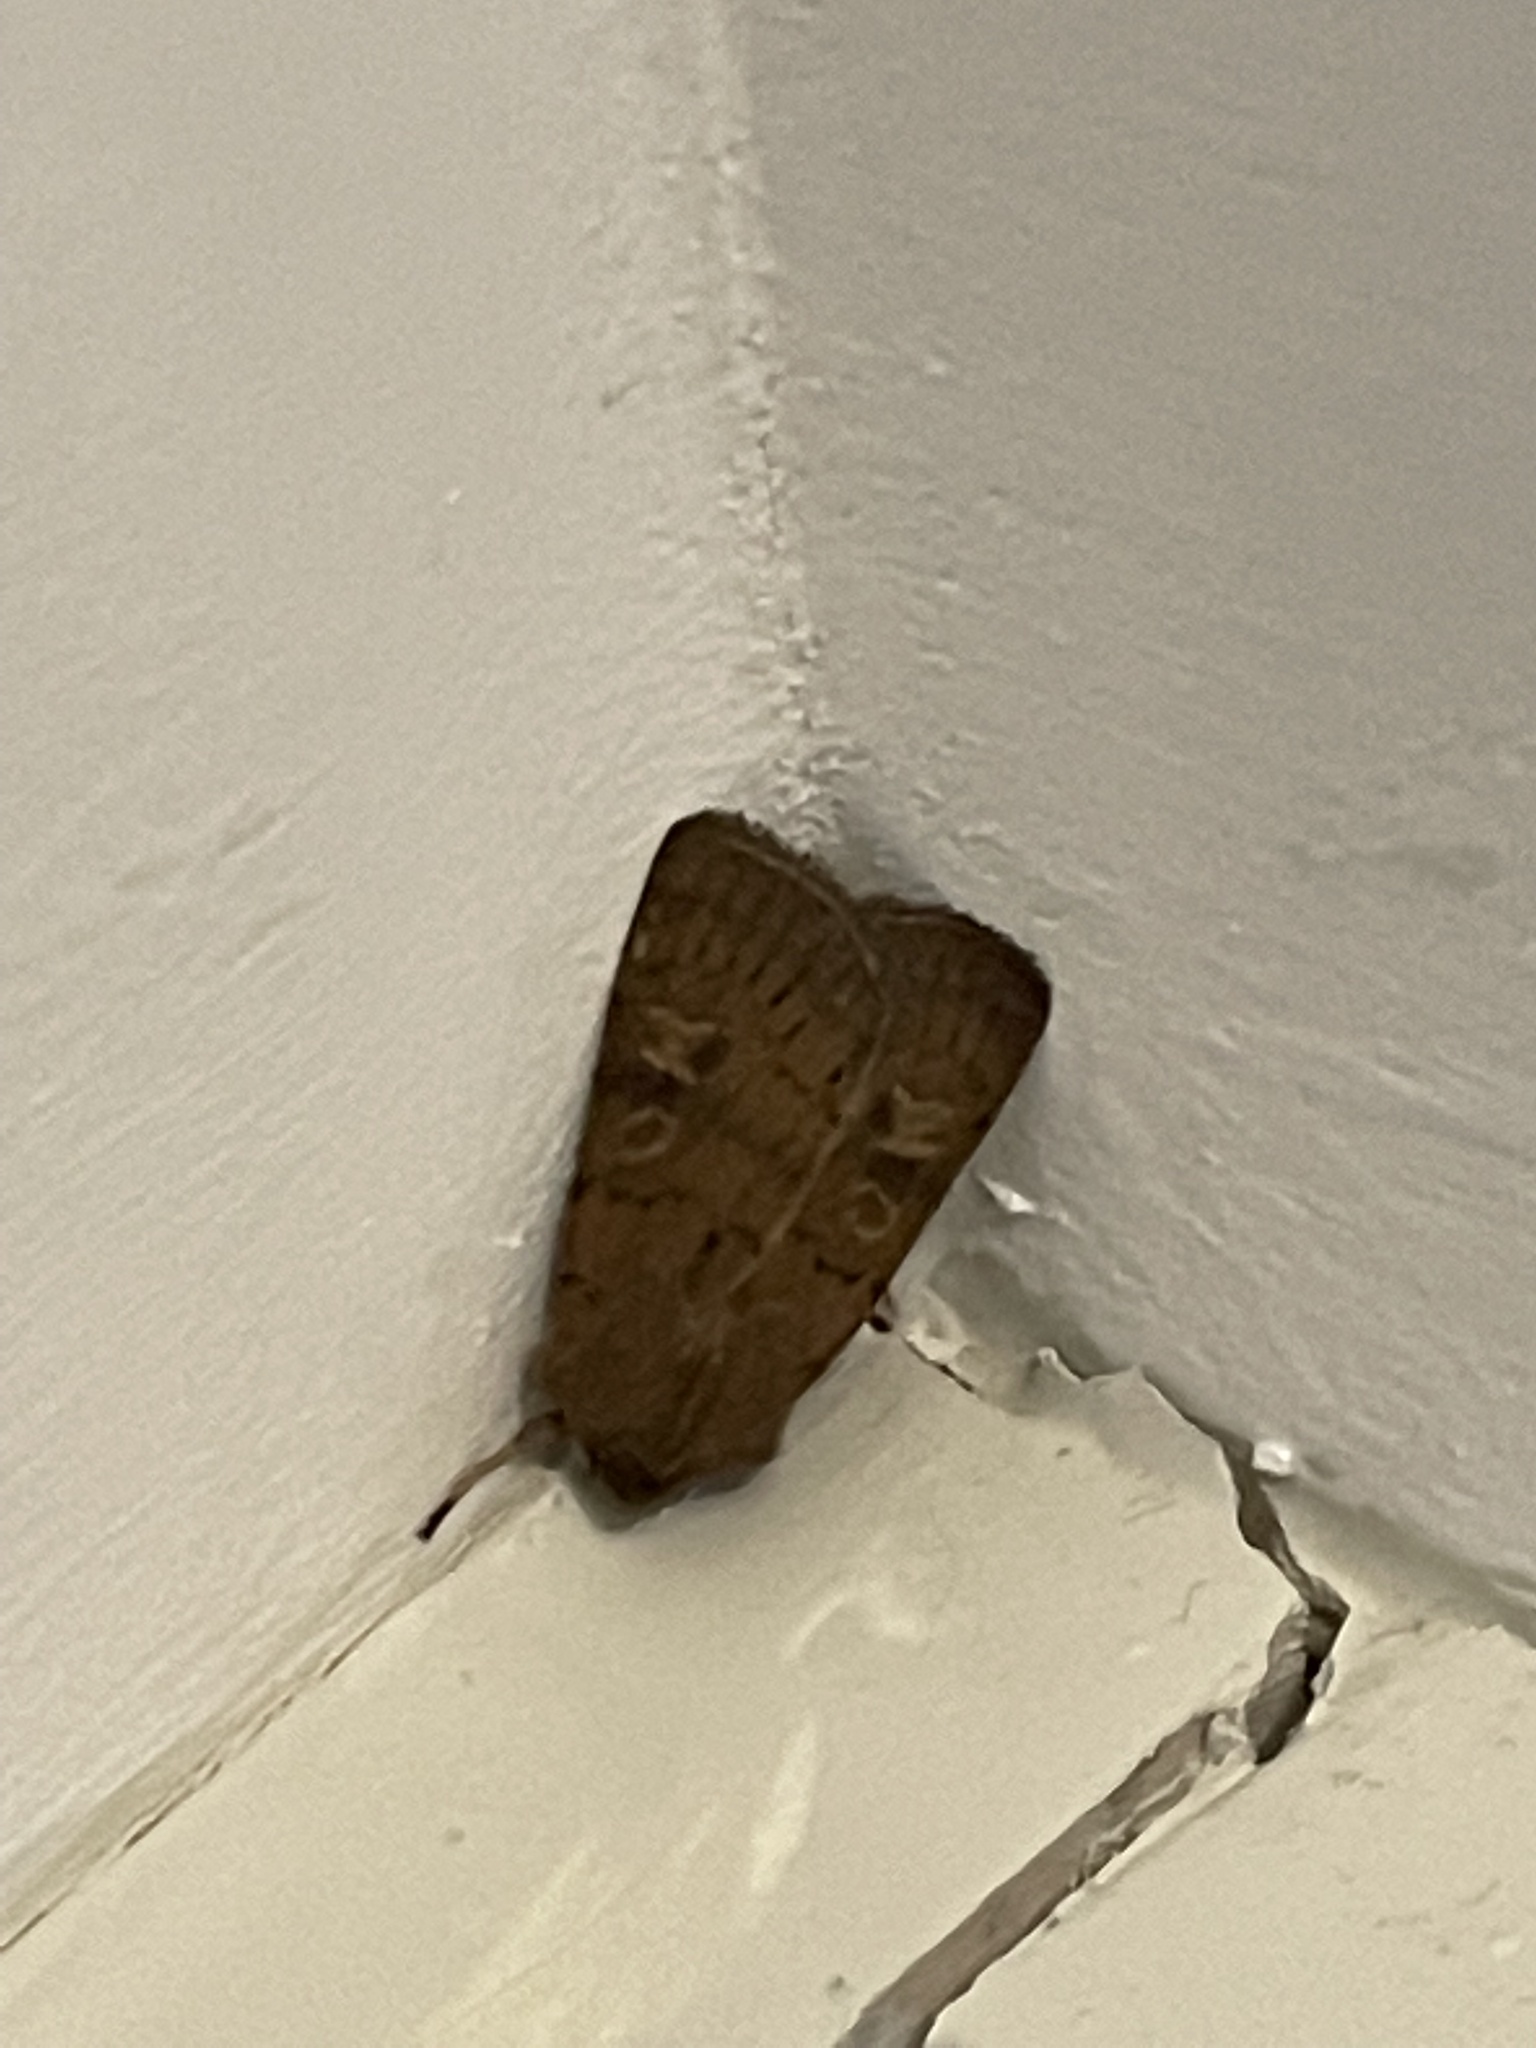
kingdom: Animalia
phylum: Arthropoda
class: Insecta
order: Lepidoptera
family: Noctuidae
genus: Xestia
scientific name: Xestia xanthographa
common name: Square-spot rustic
